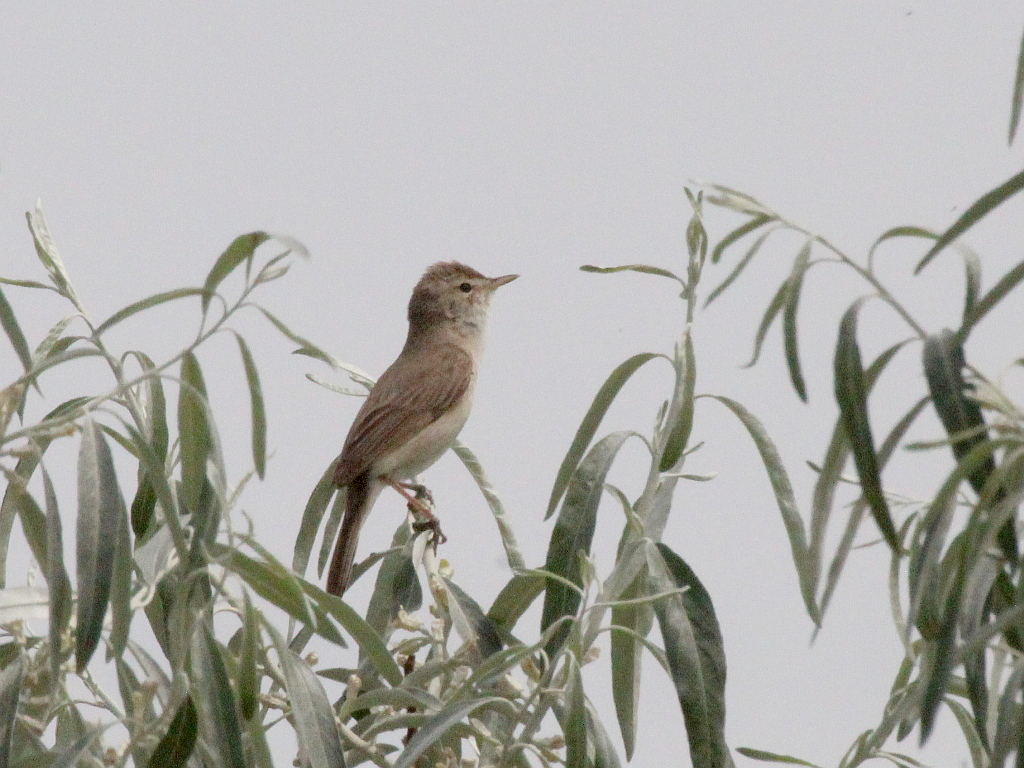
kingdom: Animalia
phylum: Chordata
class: Aves
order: Passeriformes
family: Acrocephalidae
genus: Iduna
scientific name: Iduna caligata
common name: Booted warbler
